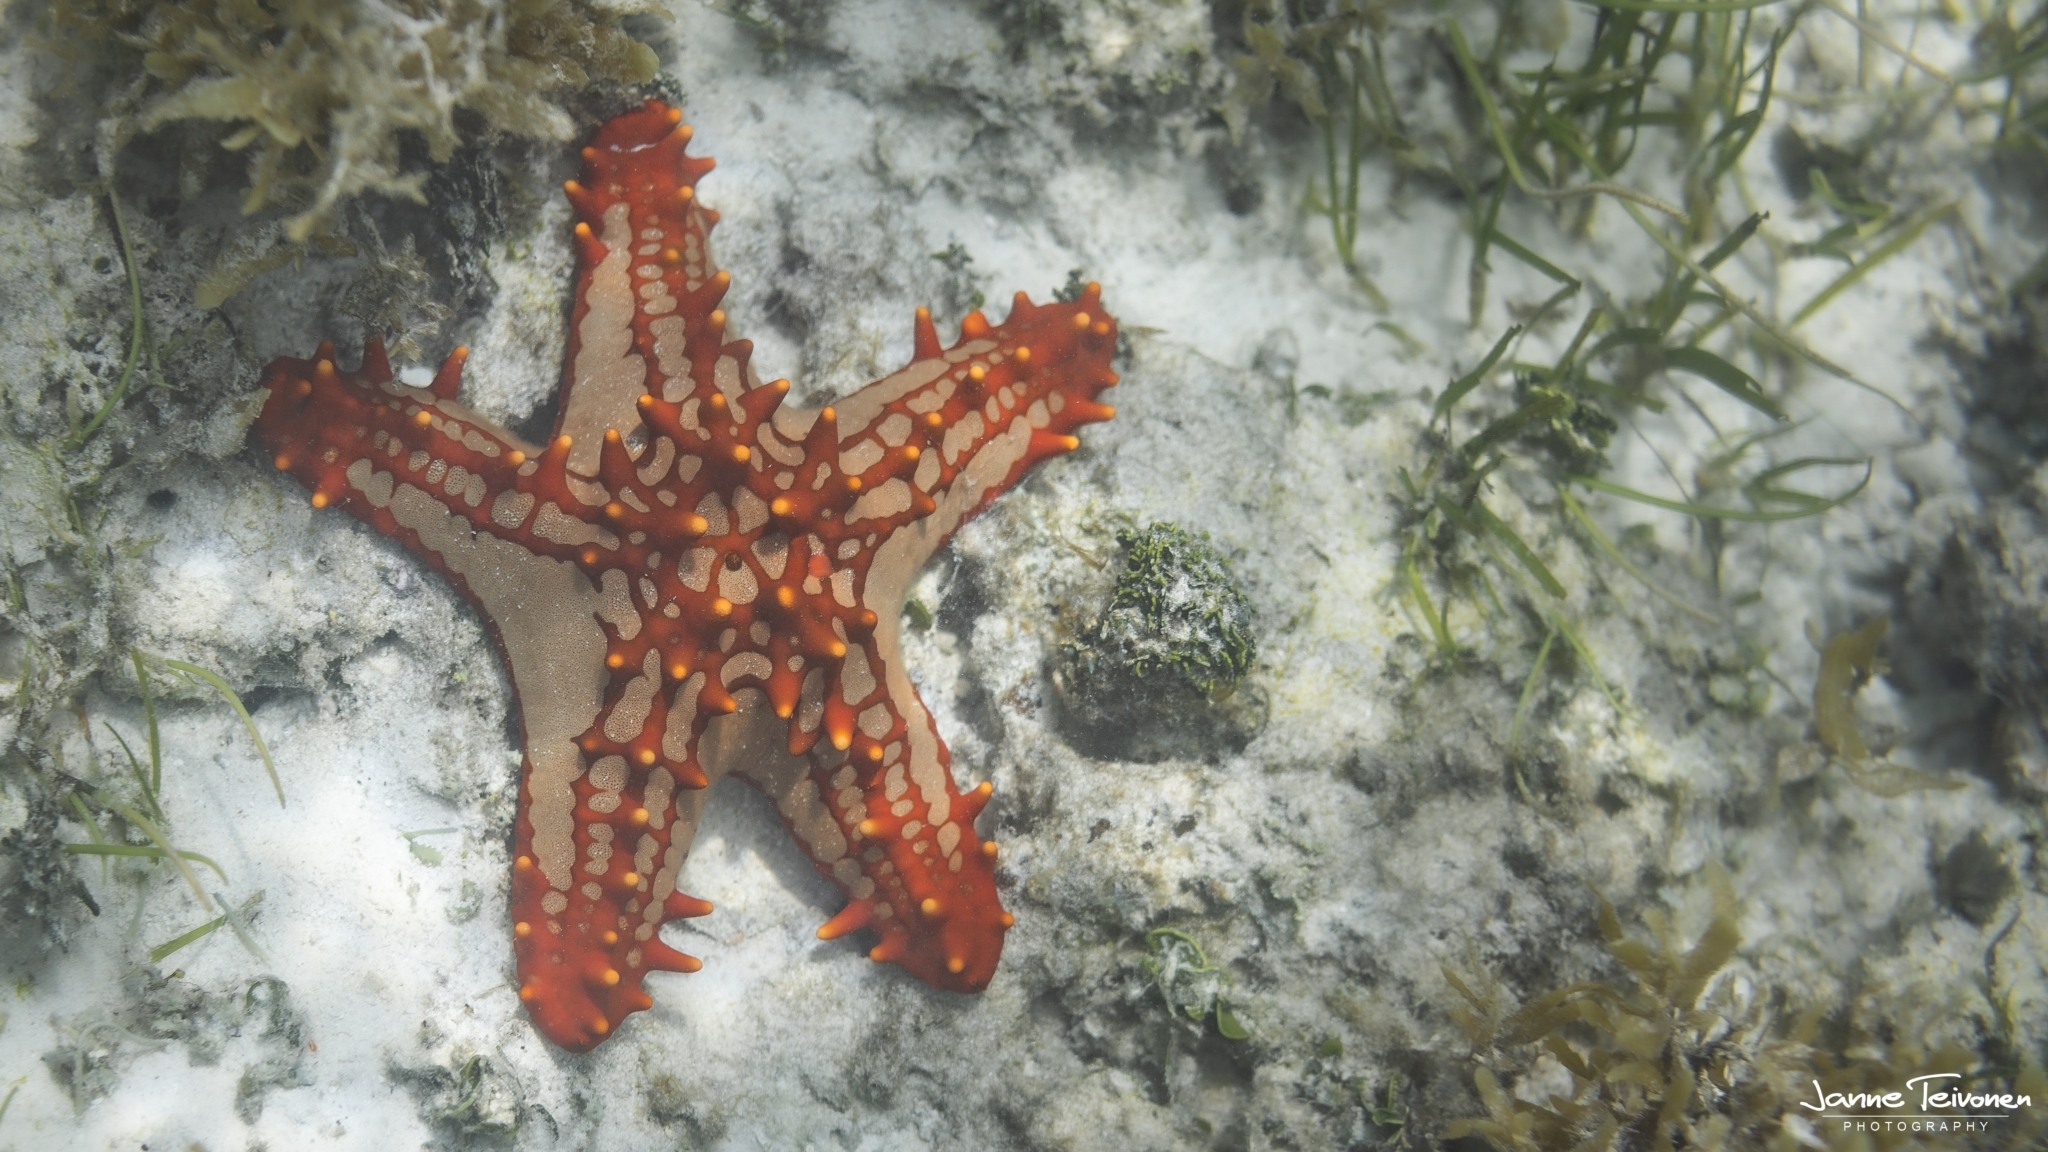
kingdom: Animalia
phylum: Echinodermata
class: Asteroidea
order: Valvatida
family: Oreasteridae
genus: Protoreaster
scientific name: Protoreaster lincki
